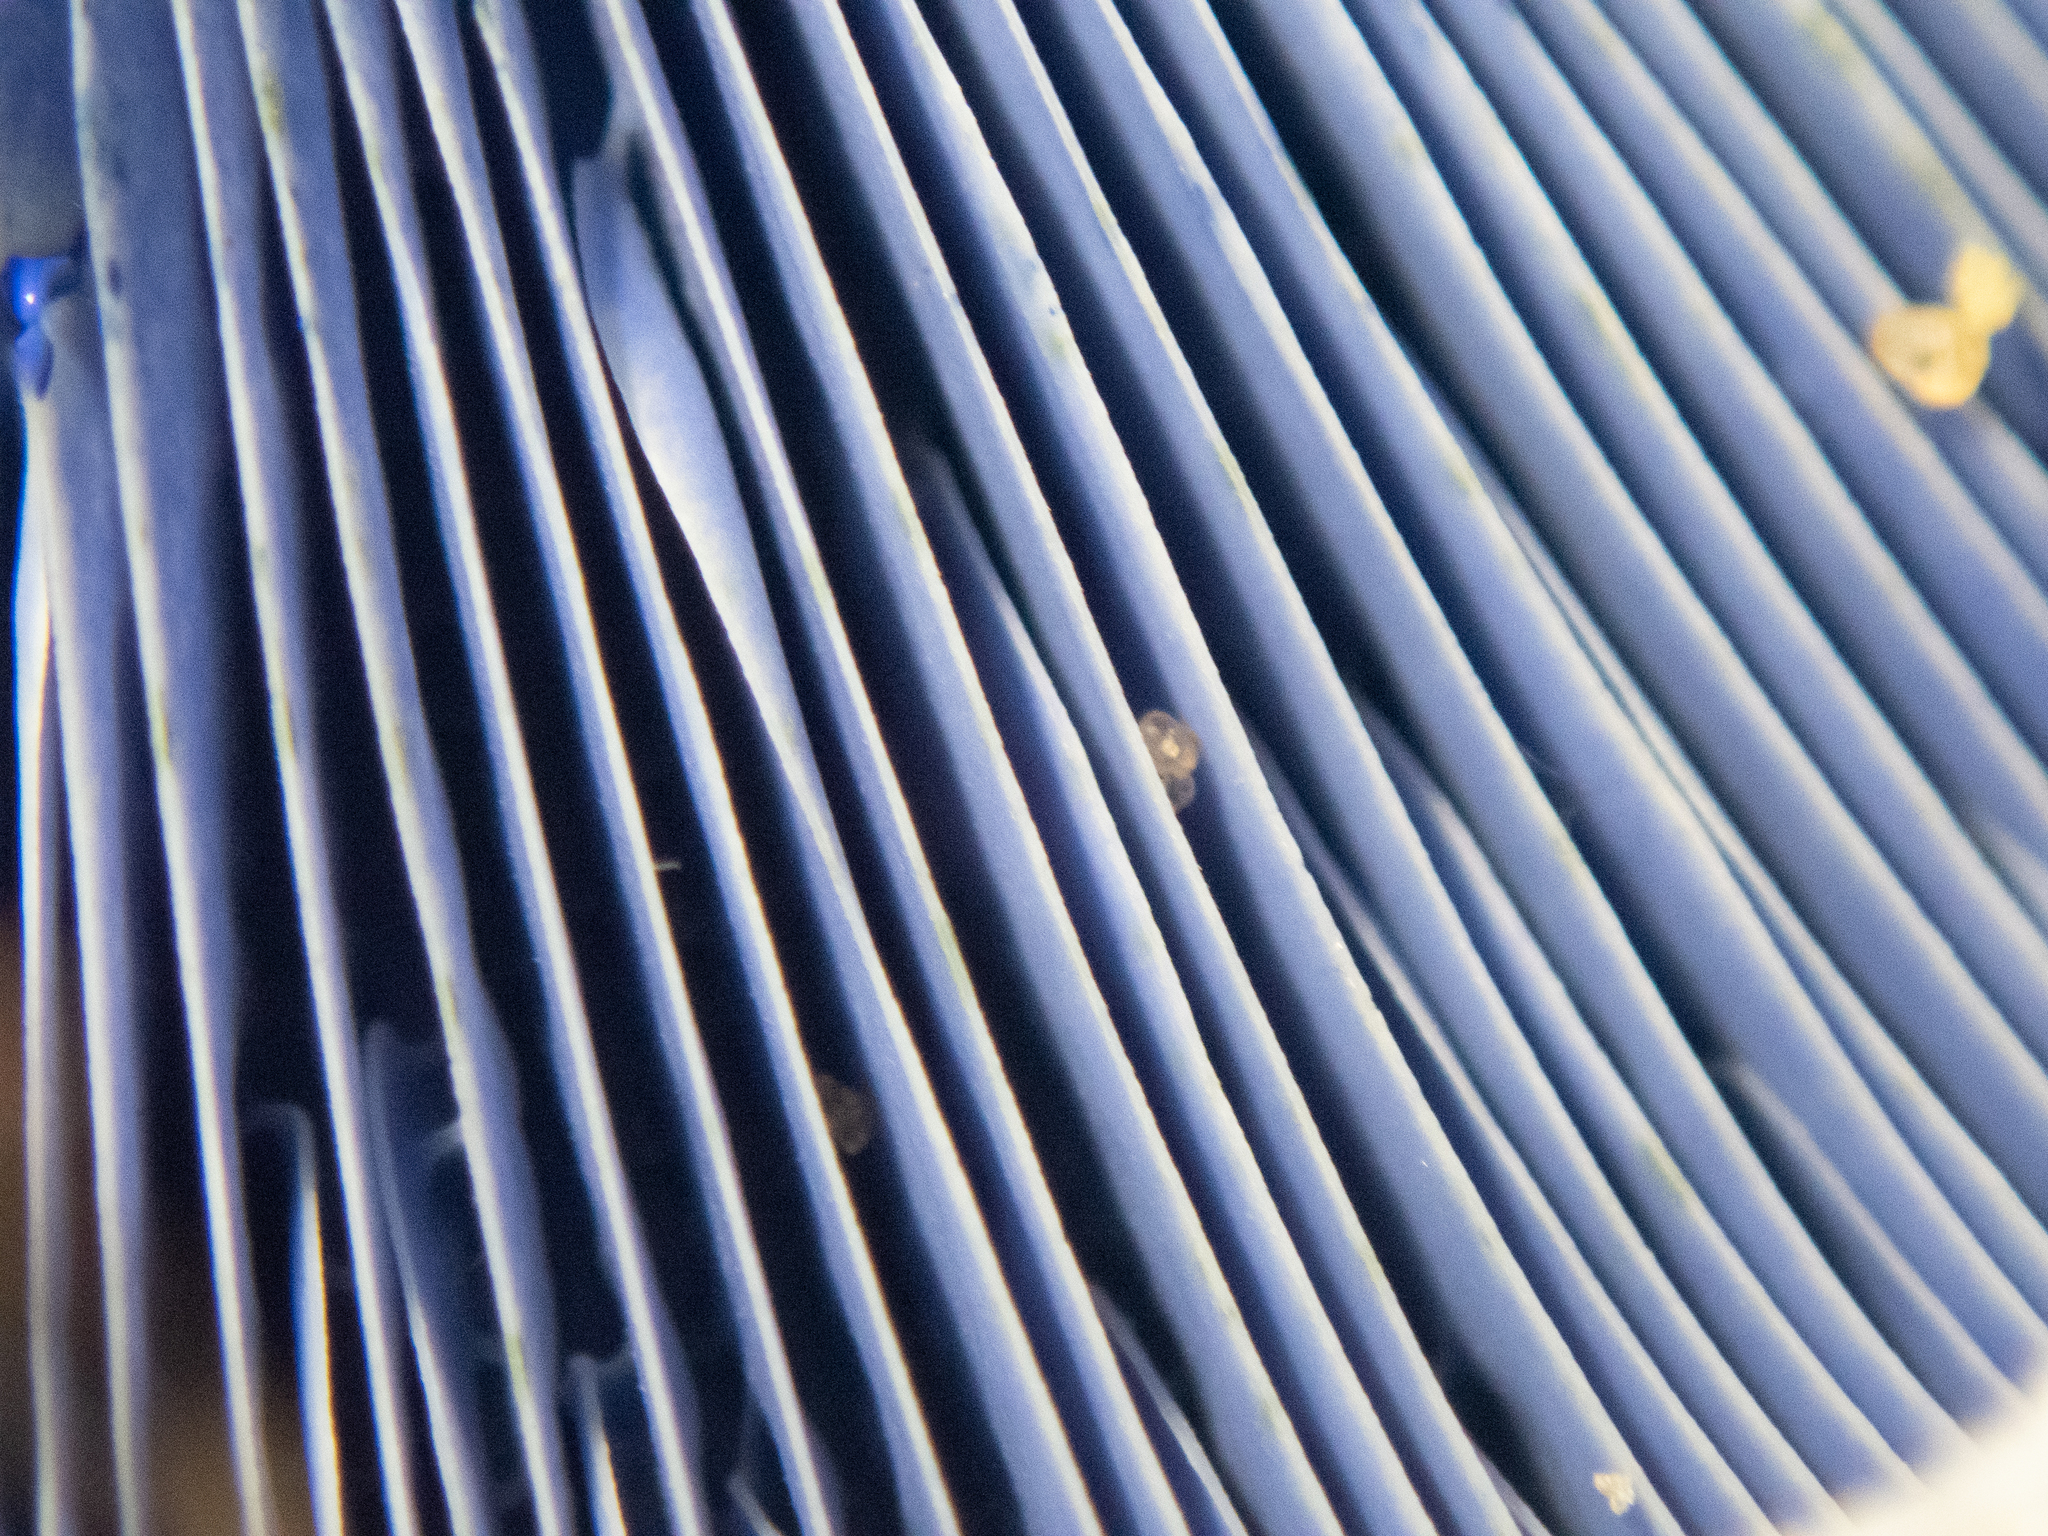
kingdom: Fungi
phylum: Basidiomycota
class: Agaricomycetes
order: Russulales
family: Russulaceae
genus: Lactarius
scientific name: Lactarius indigo
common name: Indigo milk cap
